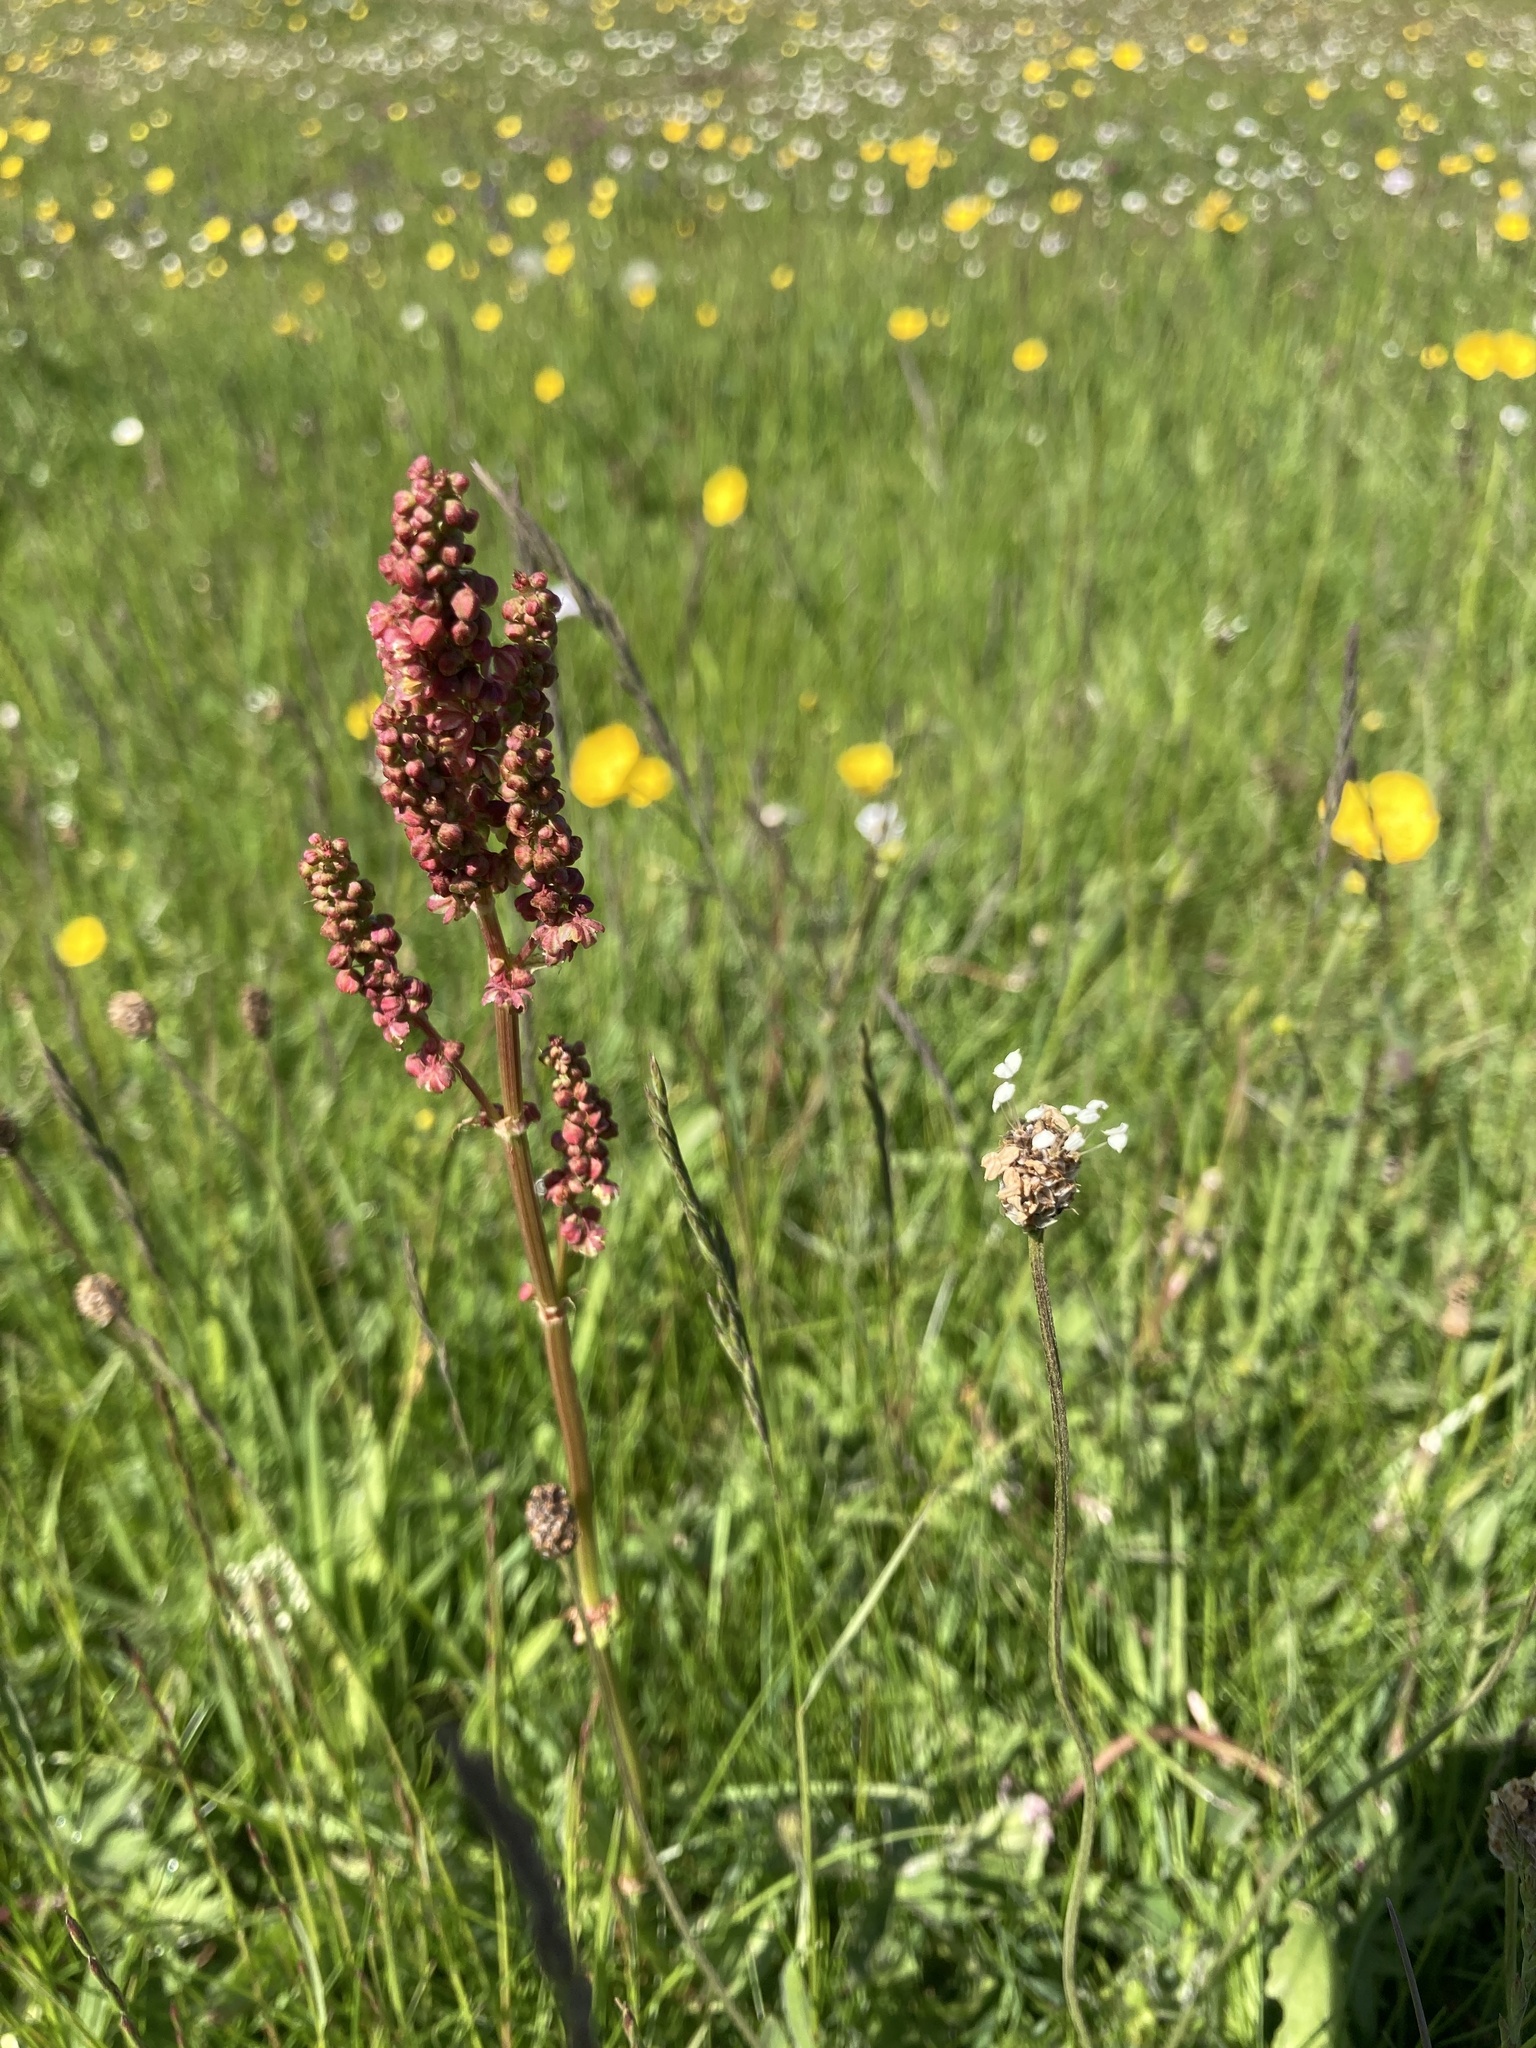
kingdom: Plantae
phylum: Tracheophyta
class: Magnoliopsida
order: Caryophyllales
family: Polygonaceae
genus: Rumex
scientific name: Rumex acetosa
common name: Garden sorrel
